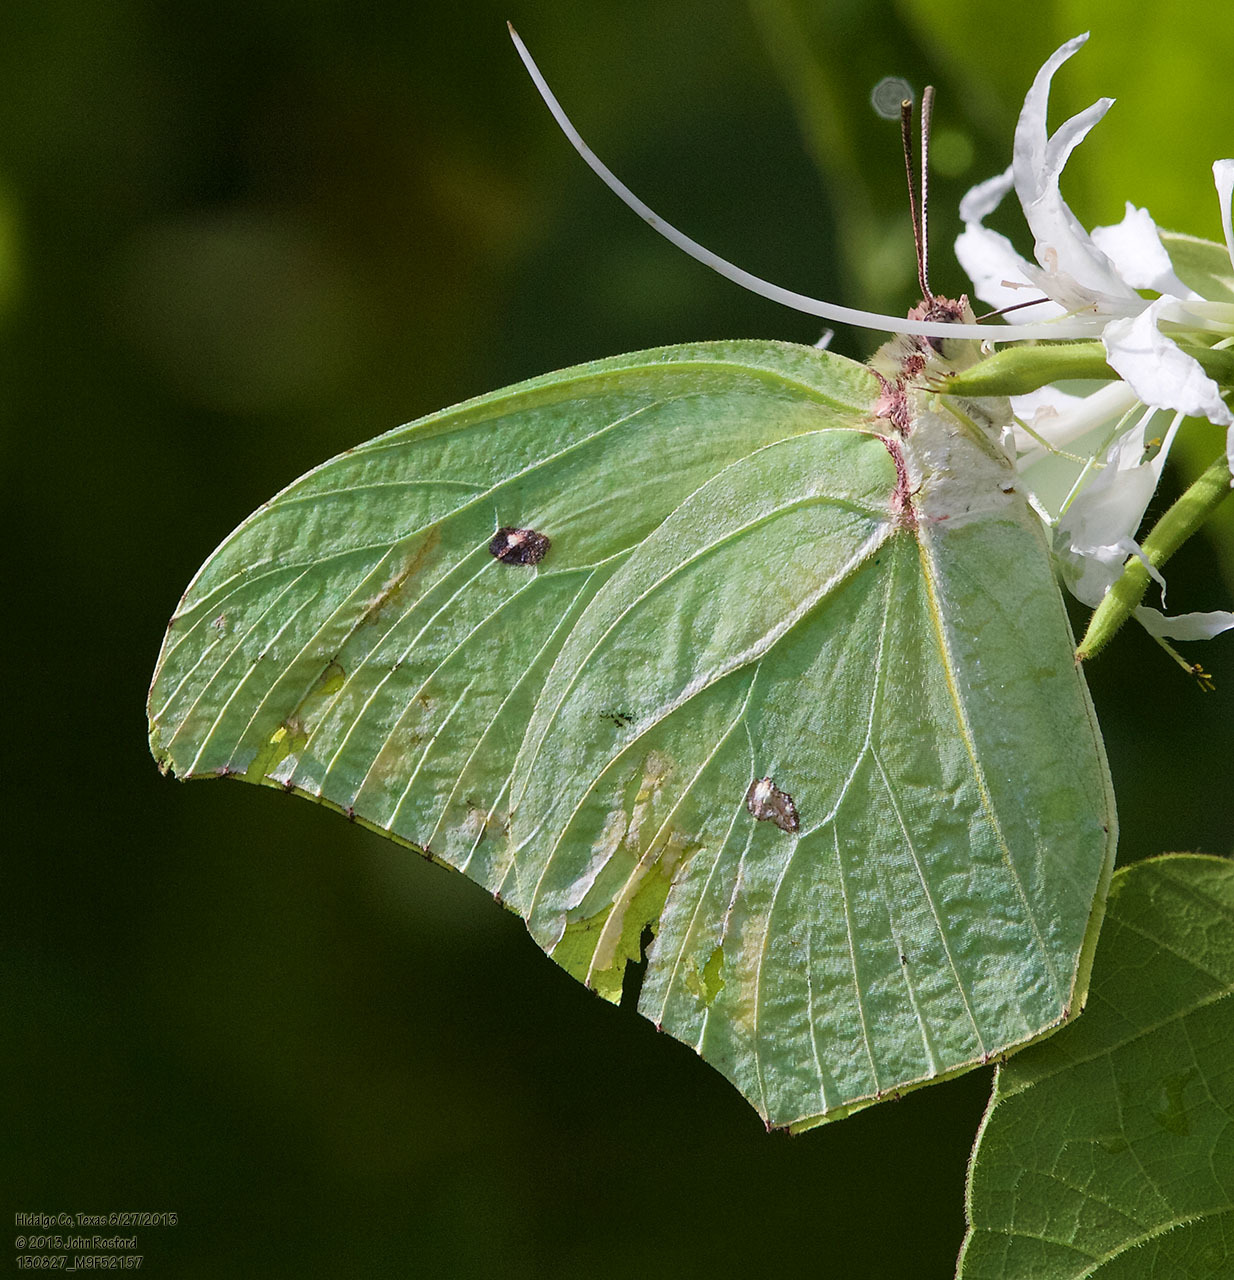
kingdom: Animalia
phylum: Arthropoda
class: Insecta
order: Lepidoptera
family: Pieridae
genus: Anteos
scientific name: Anteos maerula
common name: Angled sulphur
